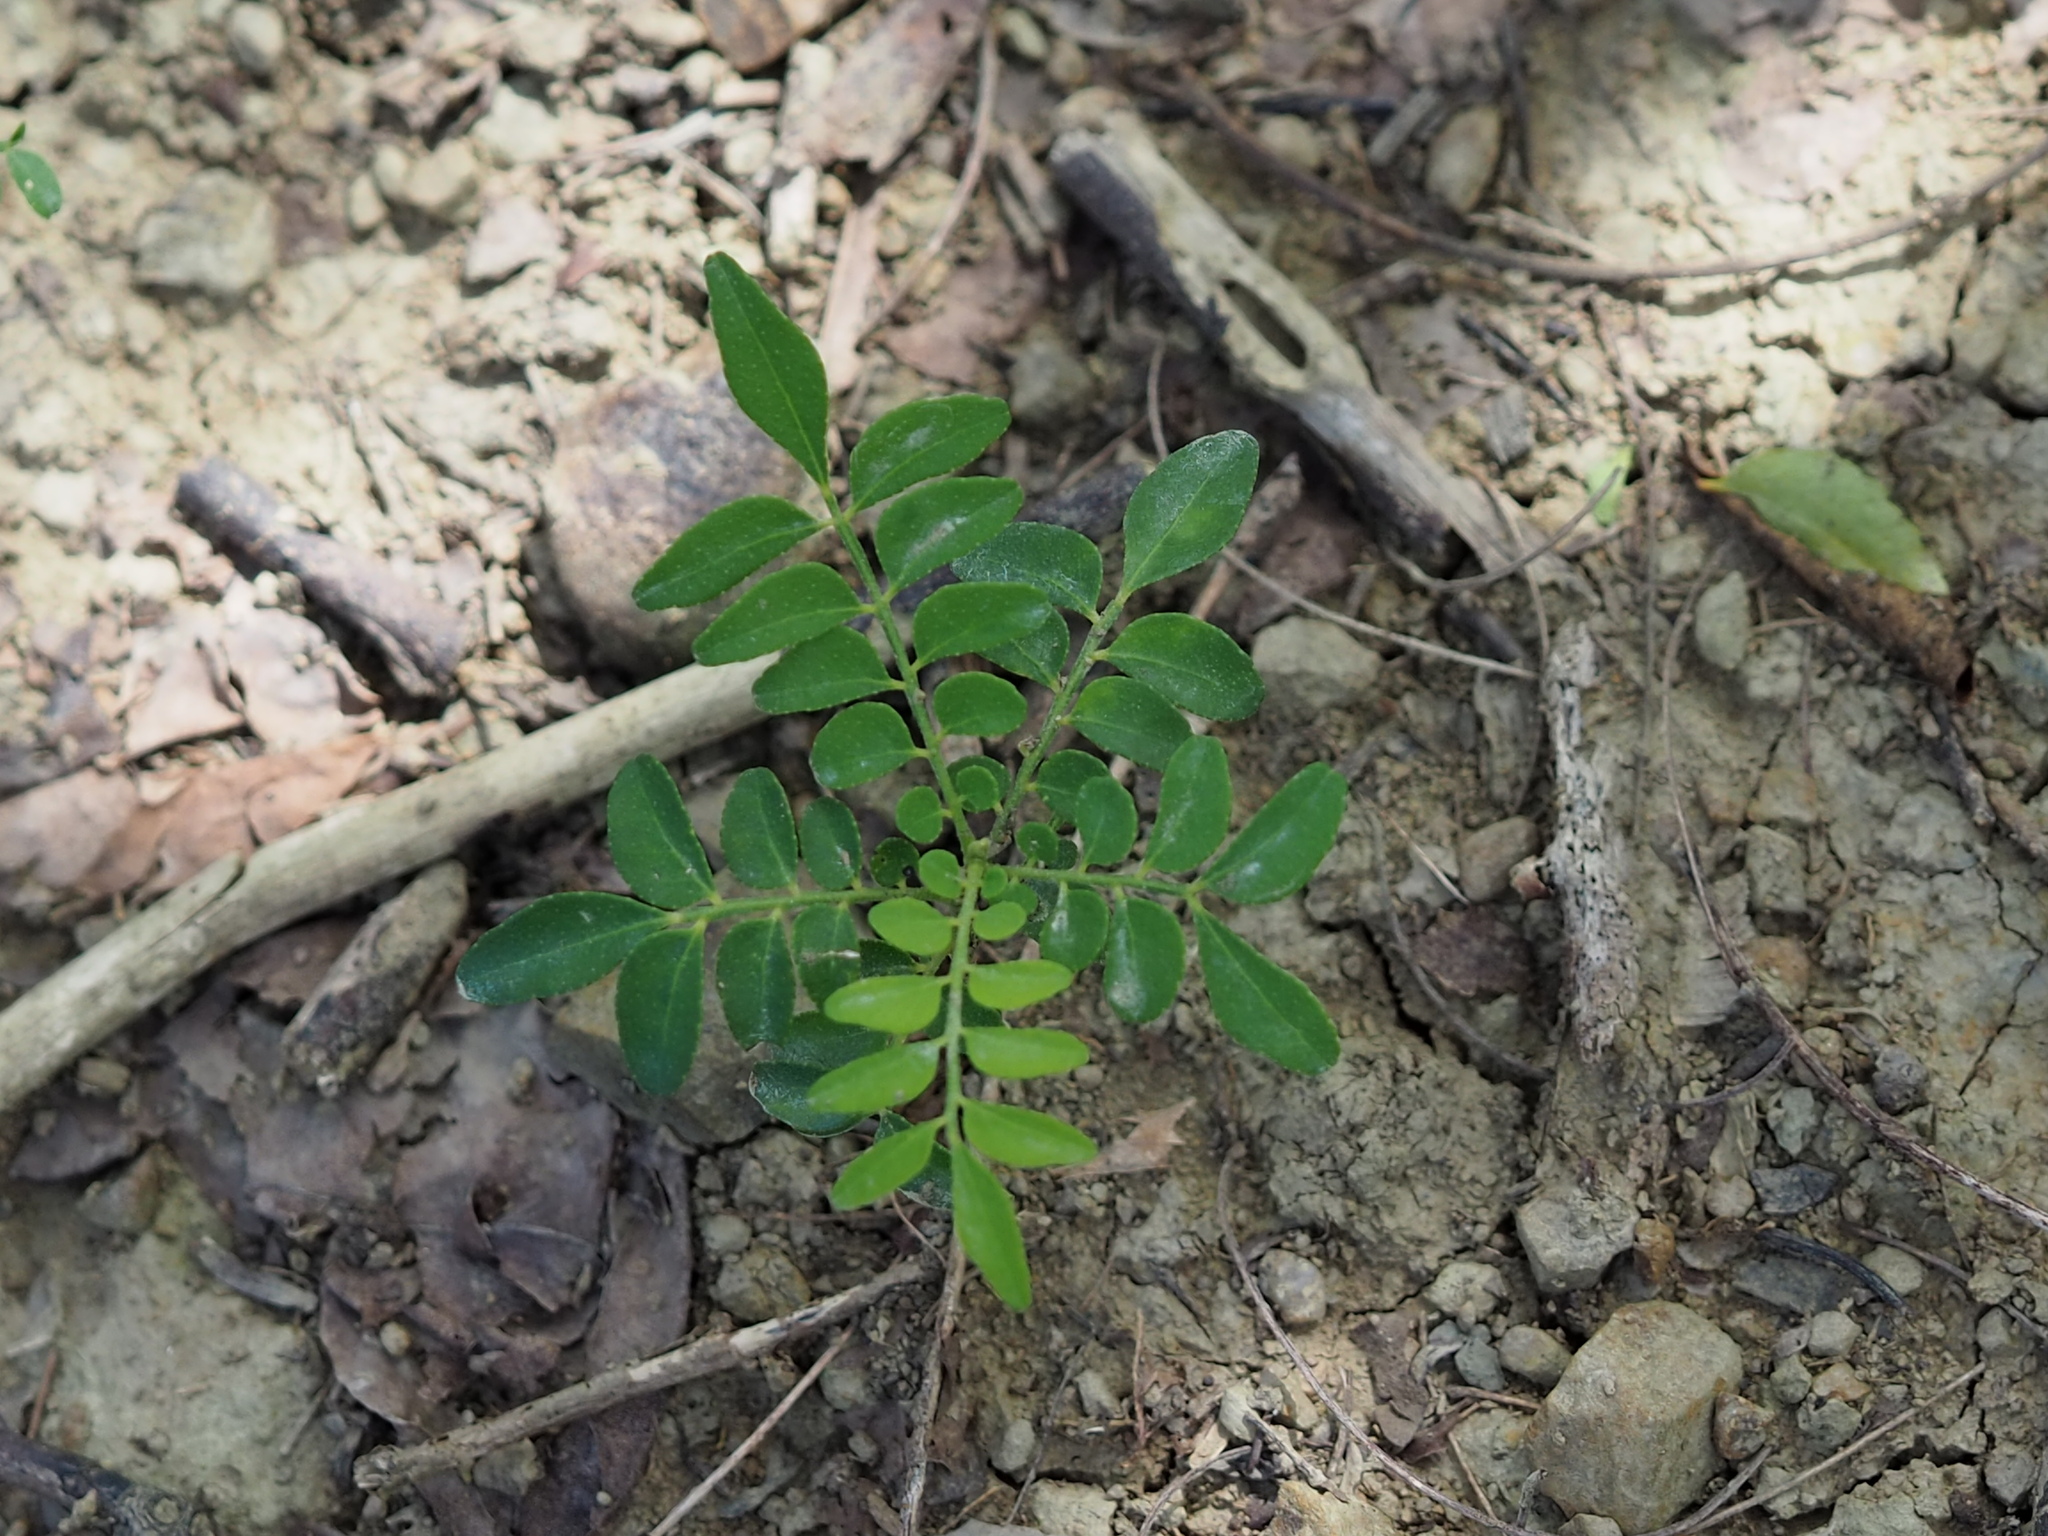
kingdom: Plantae
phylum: Tracheophyta
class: Magnoliopsida
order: Sapindales
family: Rutaceae
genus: Clausena
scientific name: Clausena excavata
